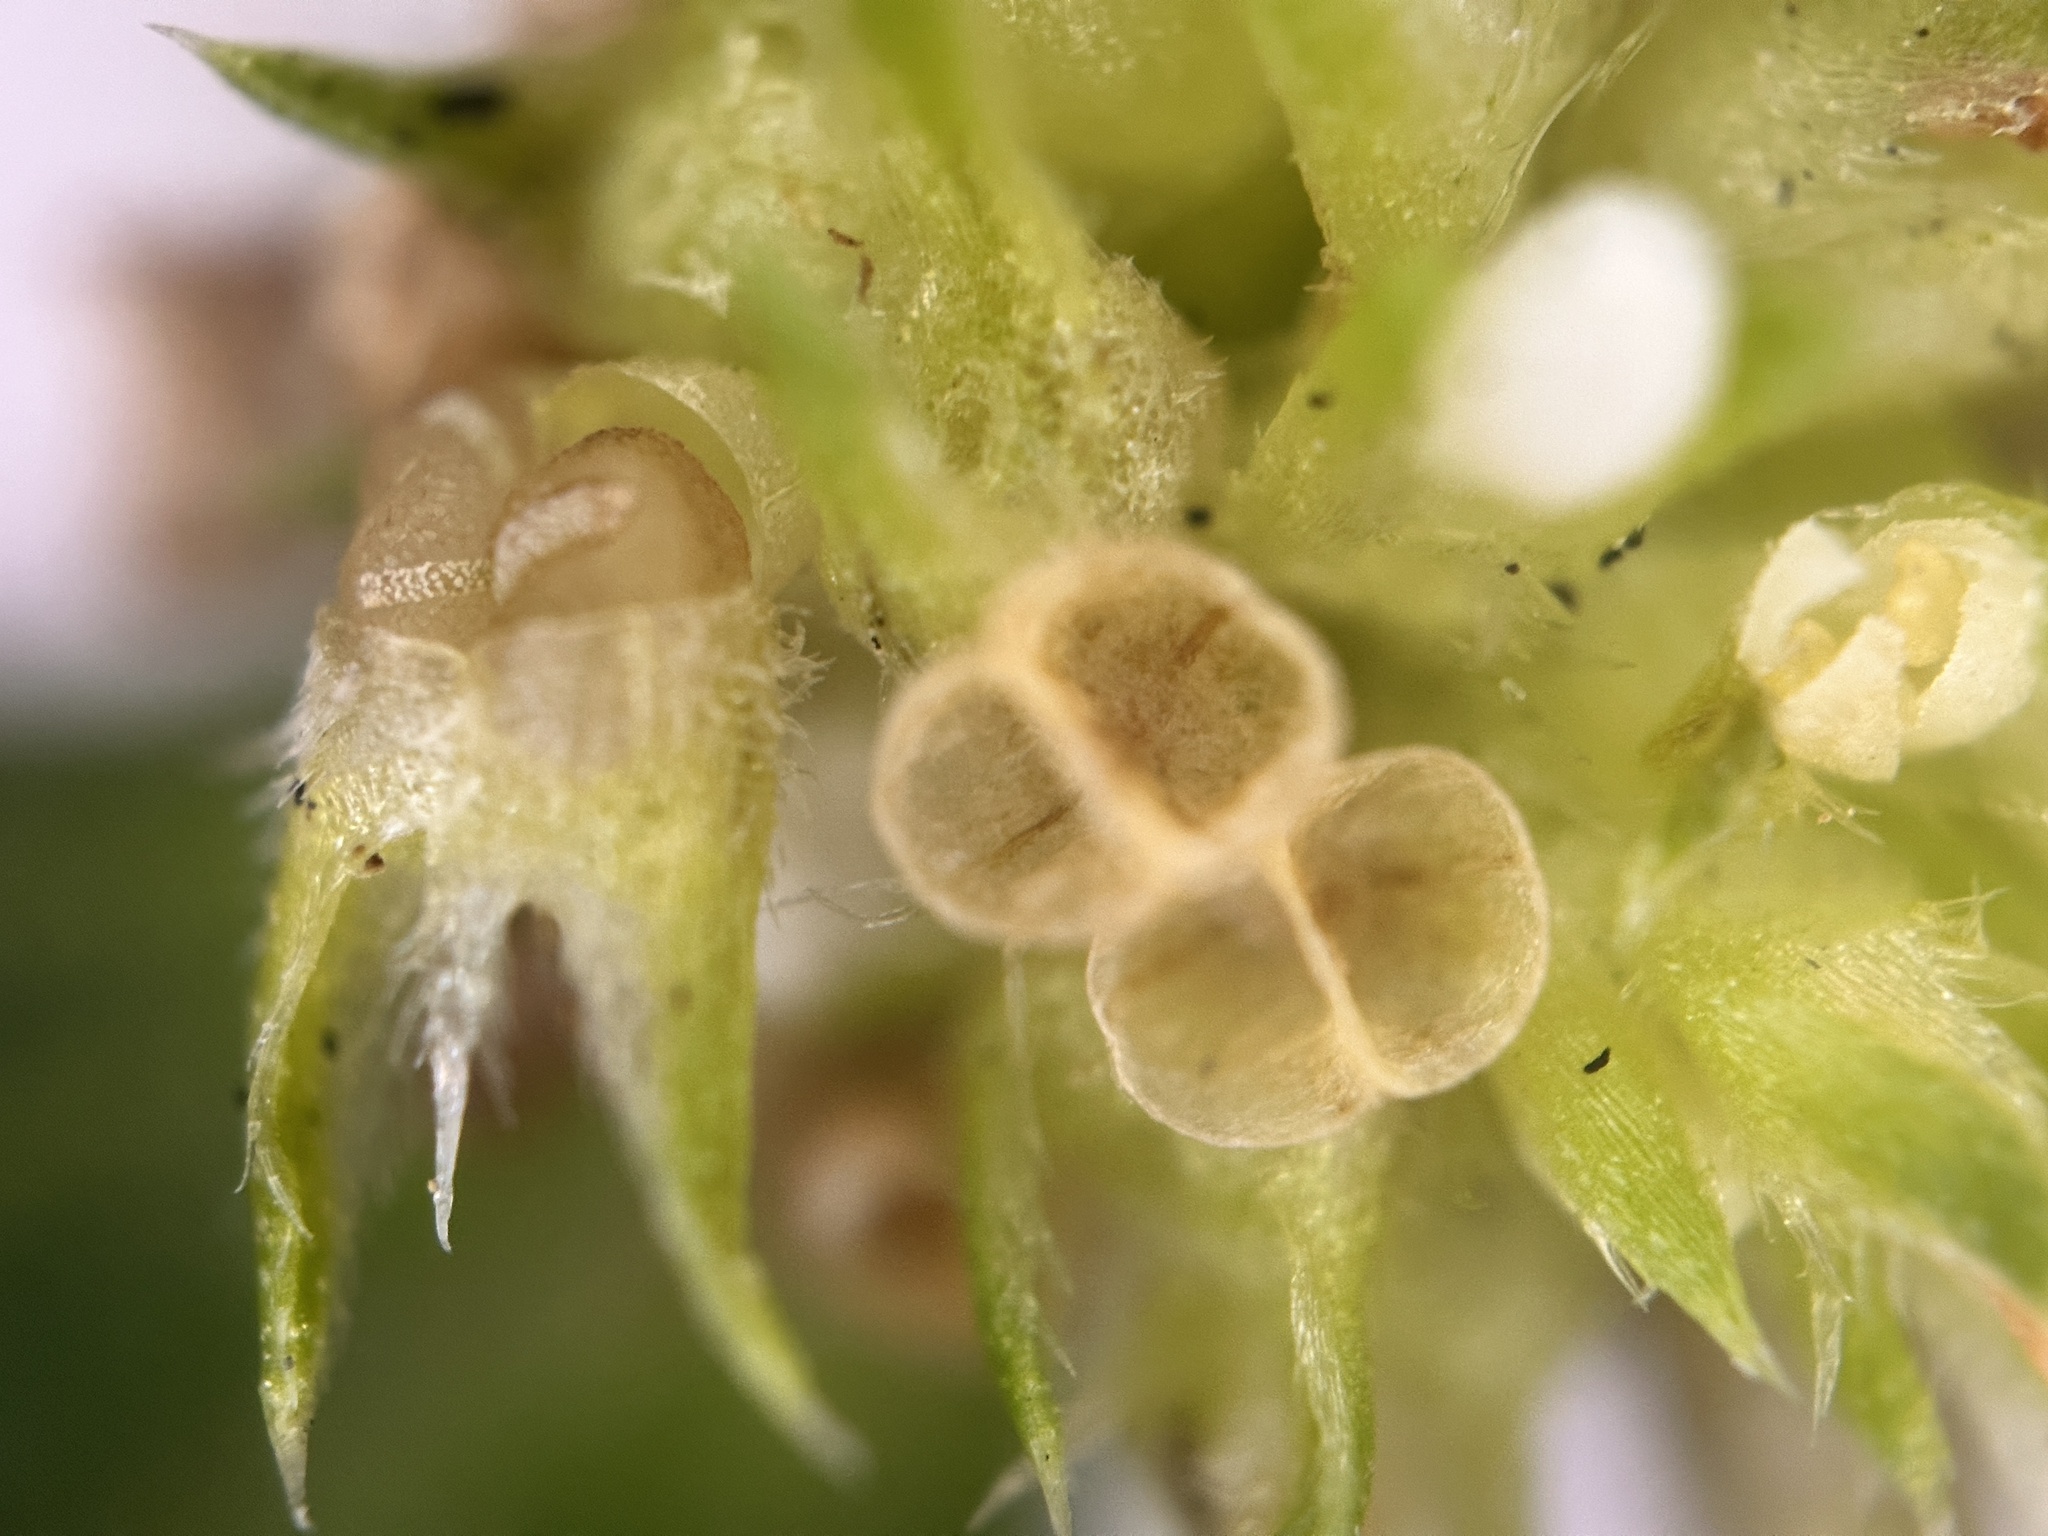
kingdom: Plantae
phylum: Tracheophyta
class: Magnoliopsida
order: Gentianales
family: Rubiaceae
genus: Mitracarpus
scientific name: Mitracarpus hirtus
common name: Tropical girdlepod
